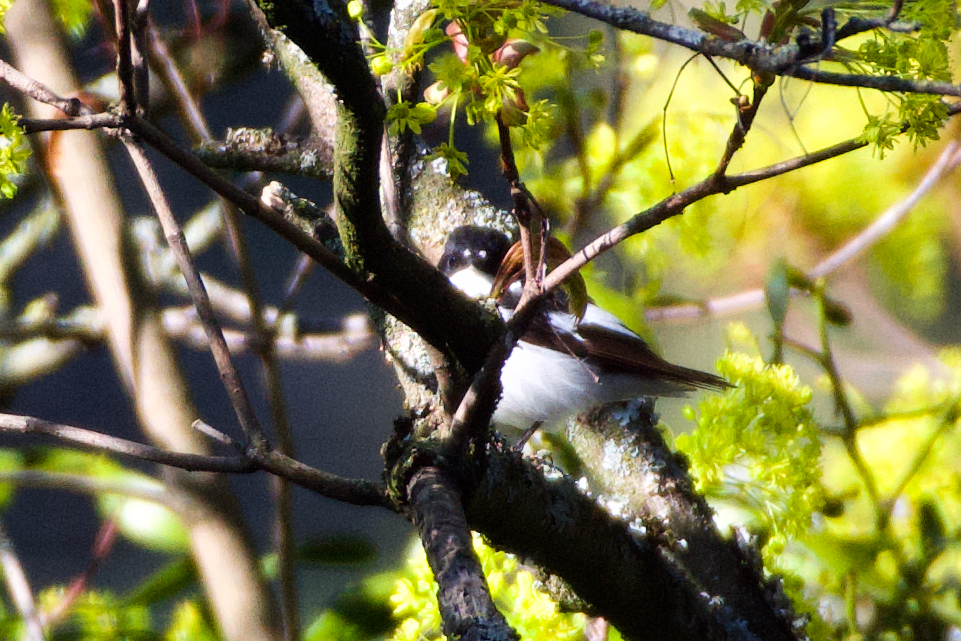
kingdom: Animalia
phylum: Chordata
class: Aves
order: Passeriformes
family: Muscicapidae
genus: Ficedula
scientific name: Ficedula hypoleuca
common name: European pied flycatcher
